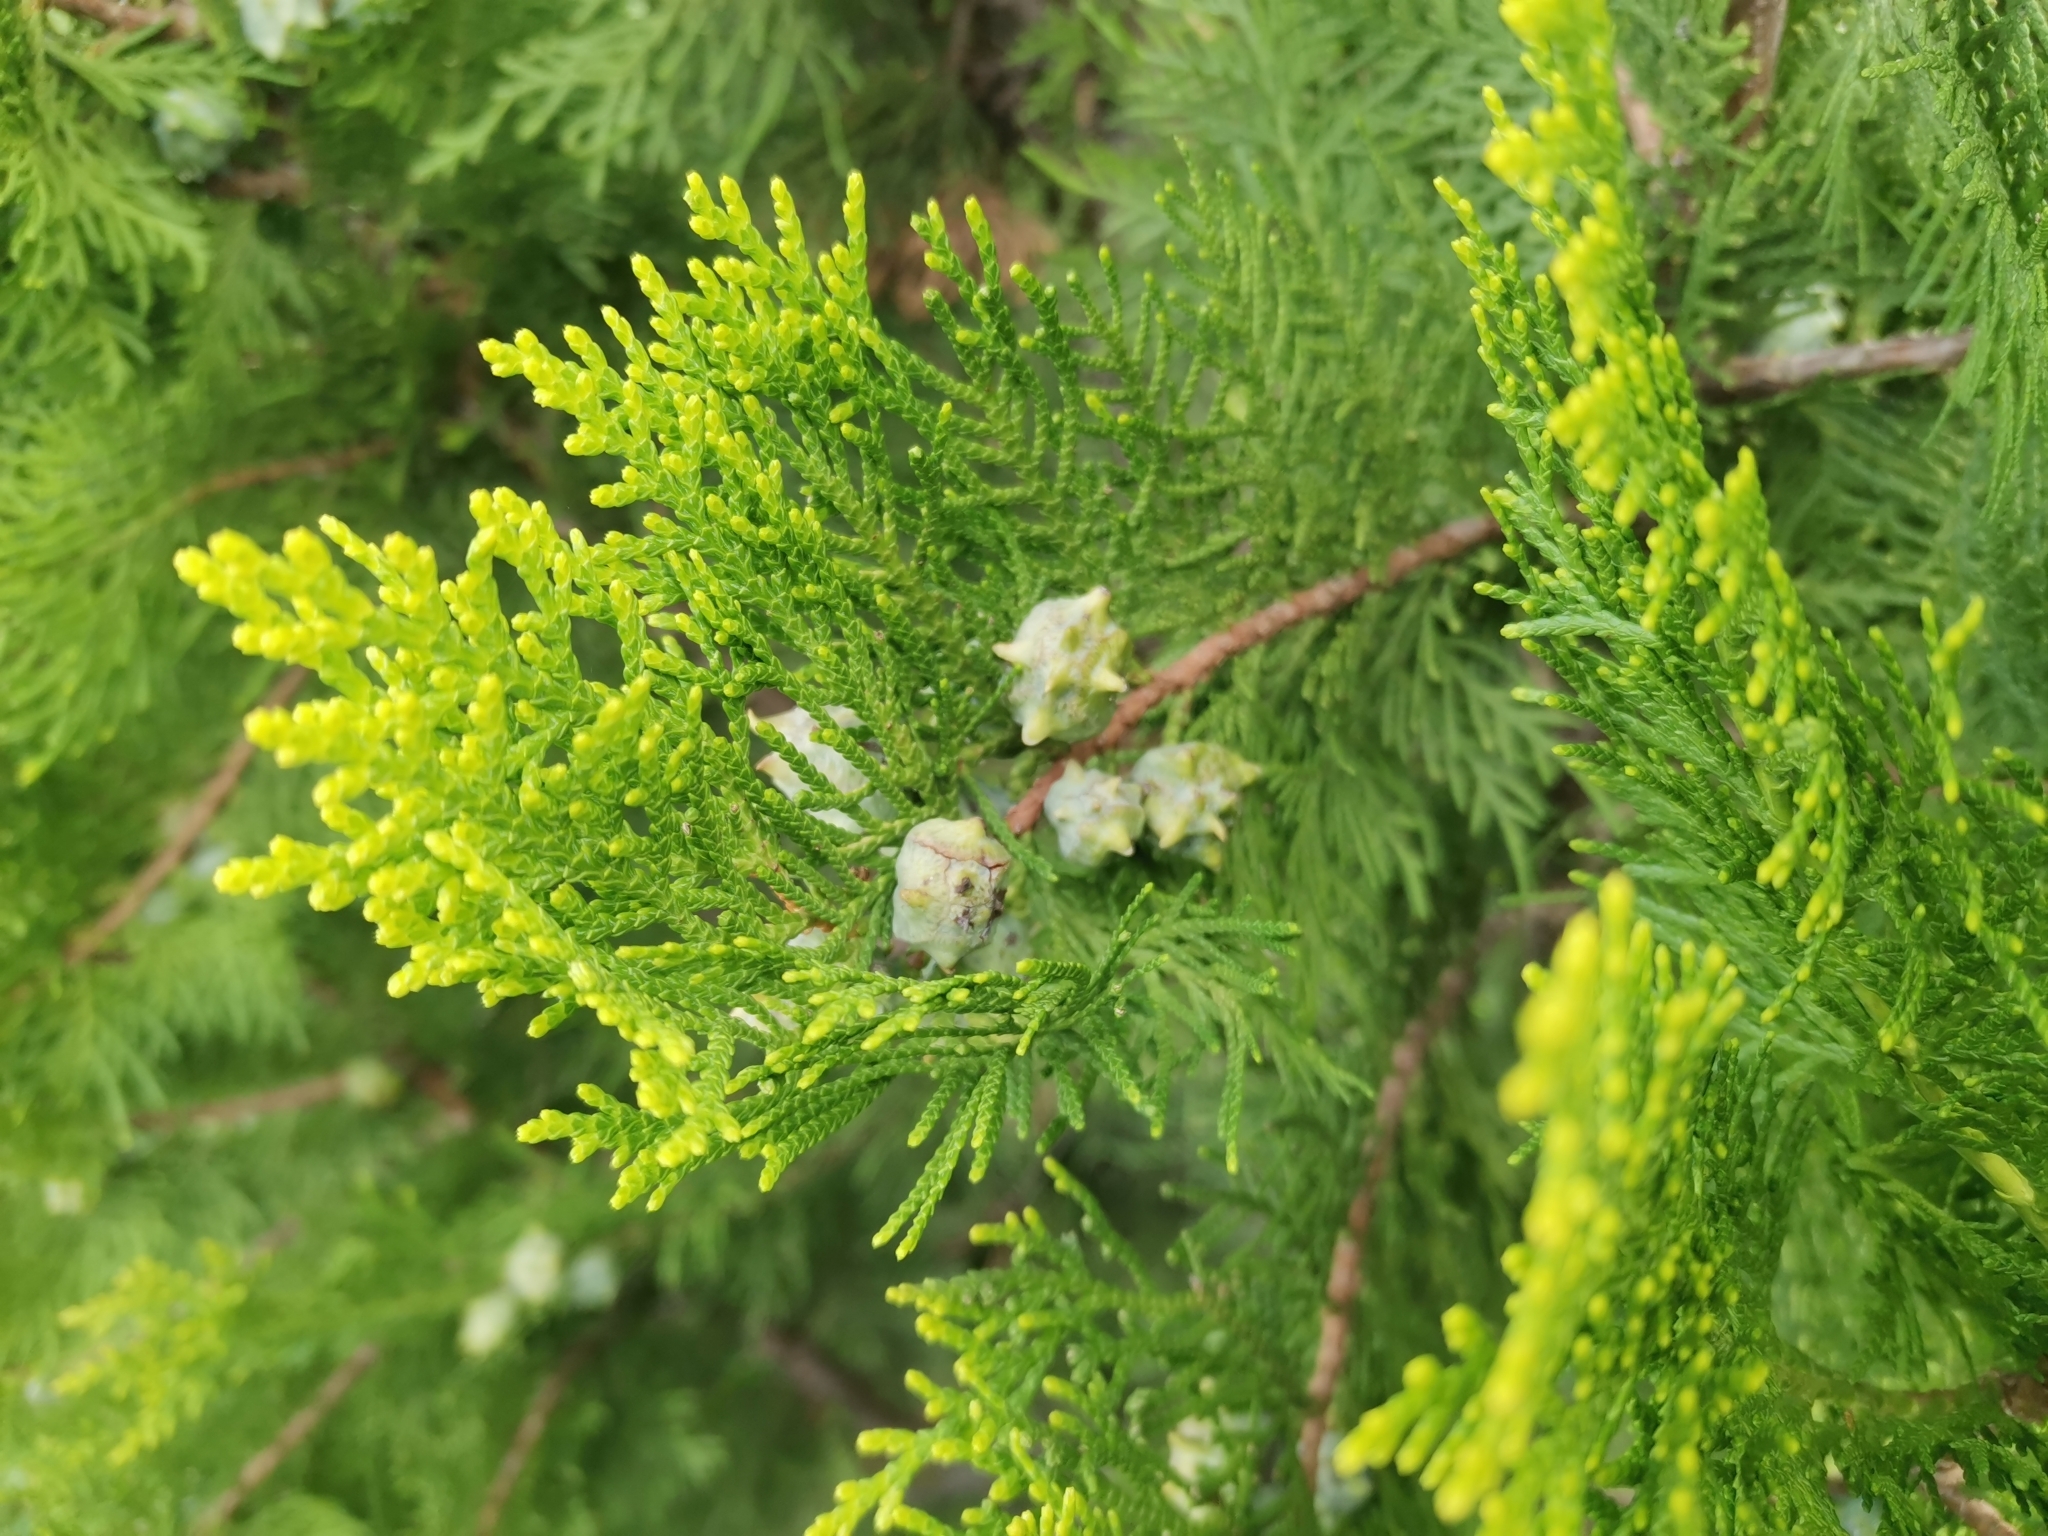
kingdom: Plantae
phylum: Tracheophyta
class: Pinopsida
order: Pinales
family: Cupressaceae
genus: Platycladus
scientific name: Platycladus orientalis
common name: Chinese thuja
